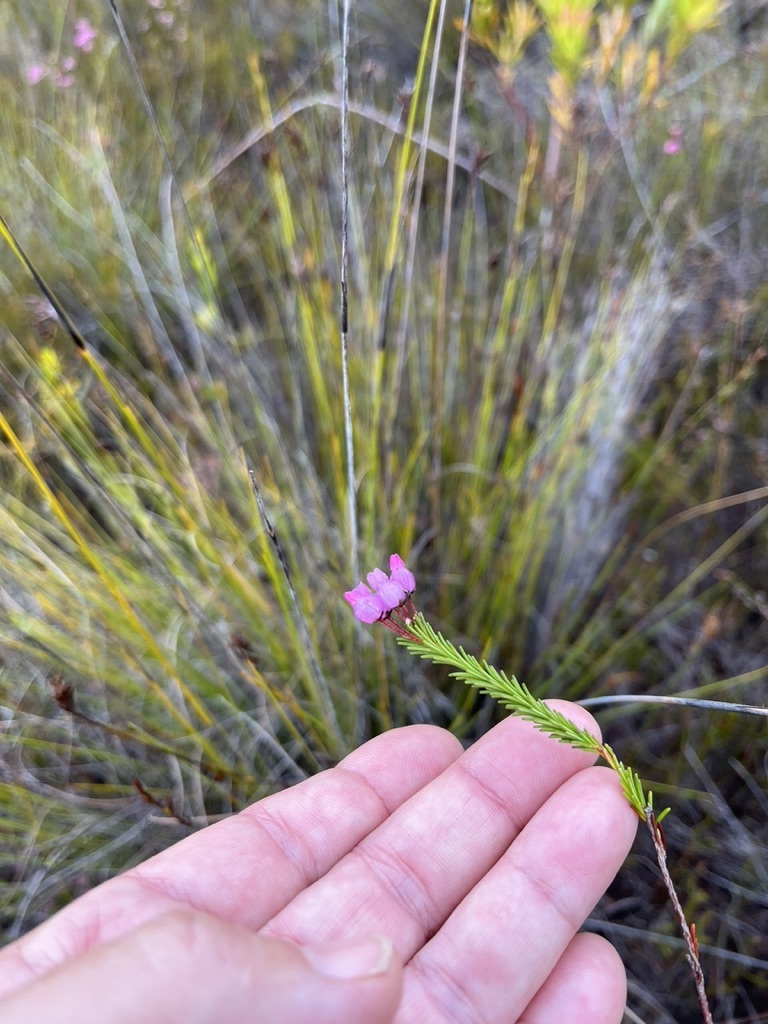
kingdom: Plantae
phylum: Tracheophyta
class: Magnoliopsida
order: Ericales
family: Ericaceae
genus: Erica
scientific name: Erica obliqua
